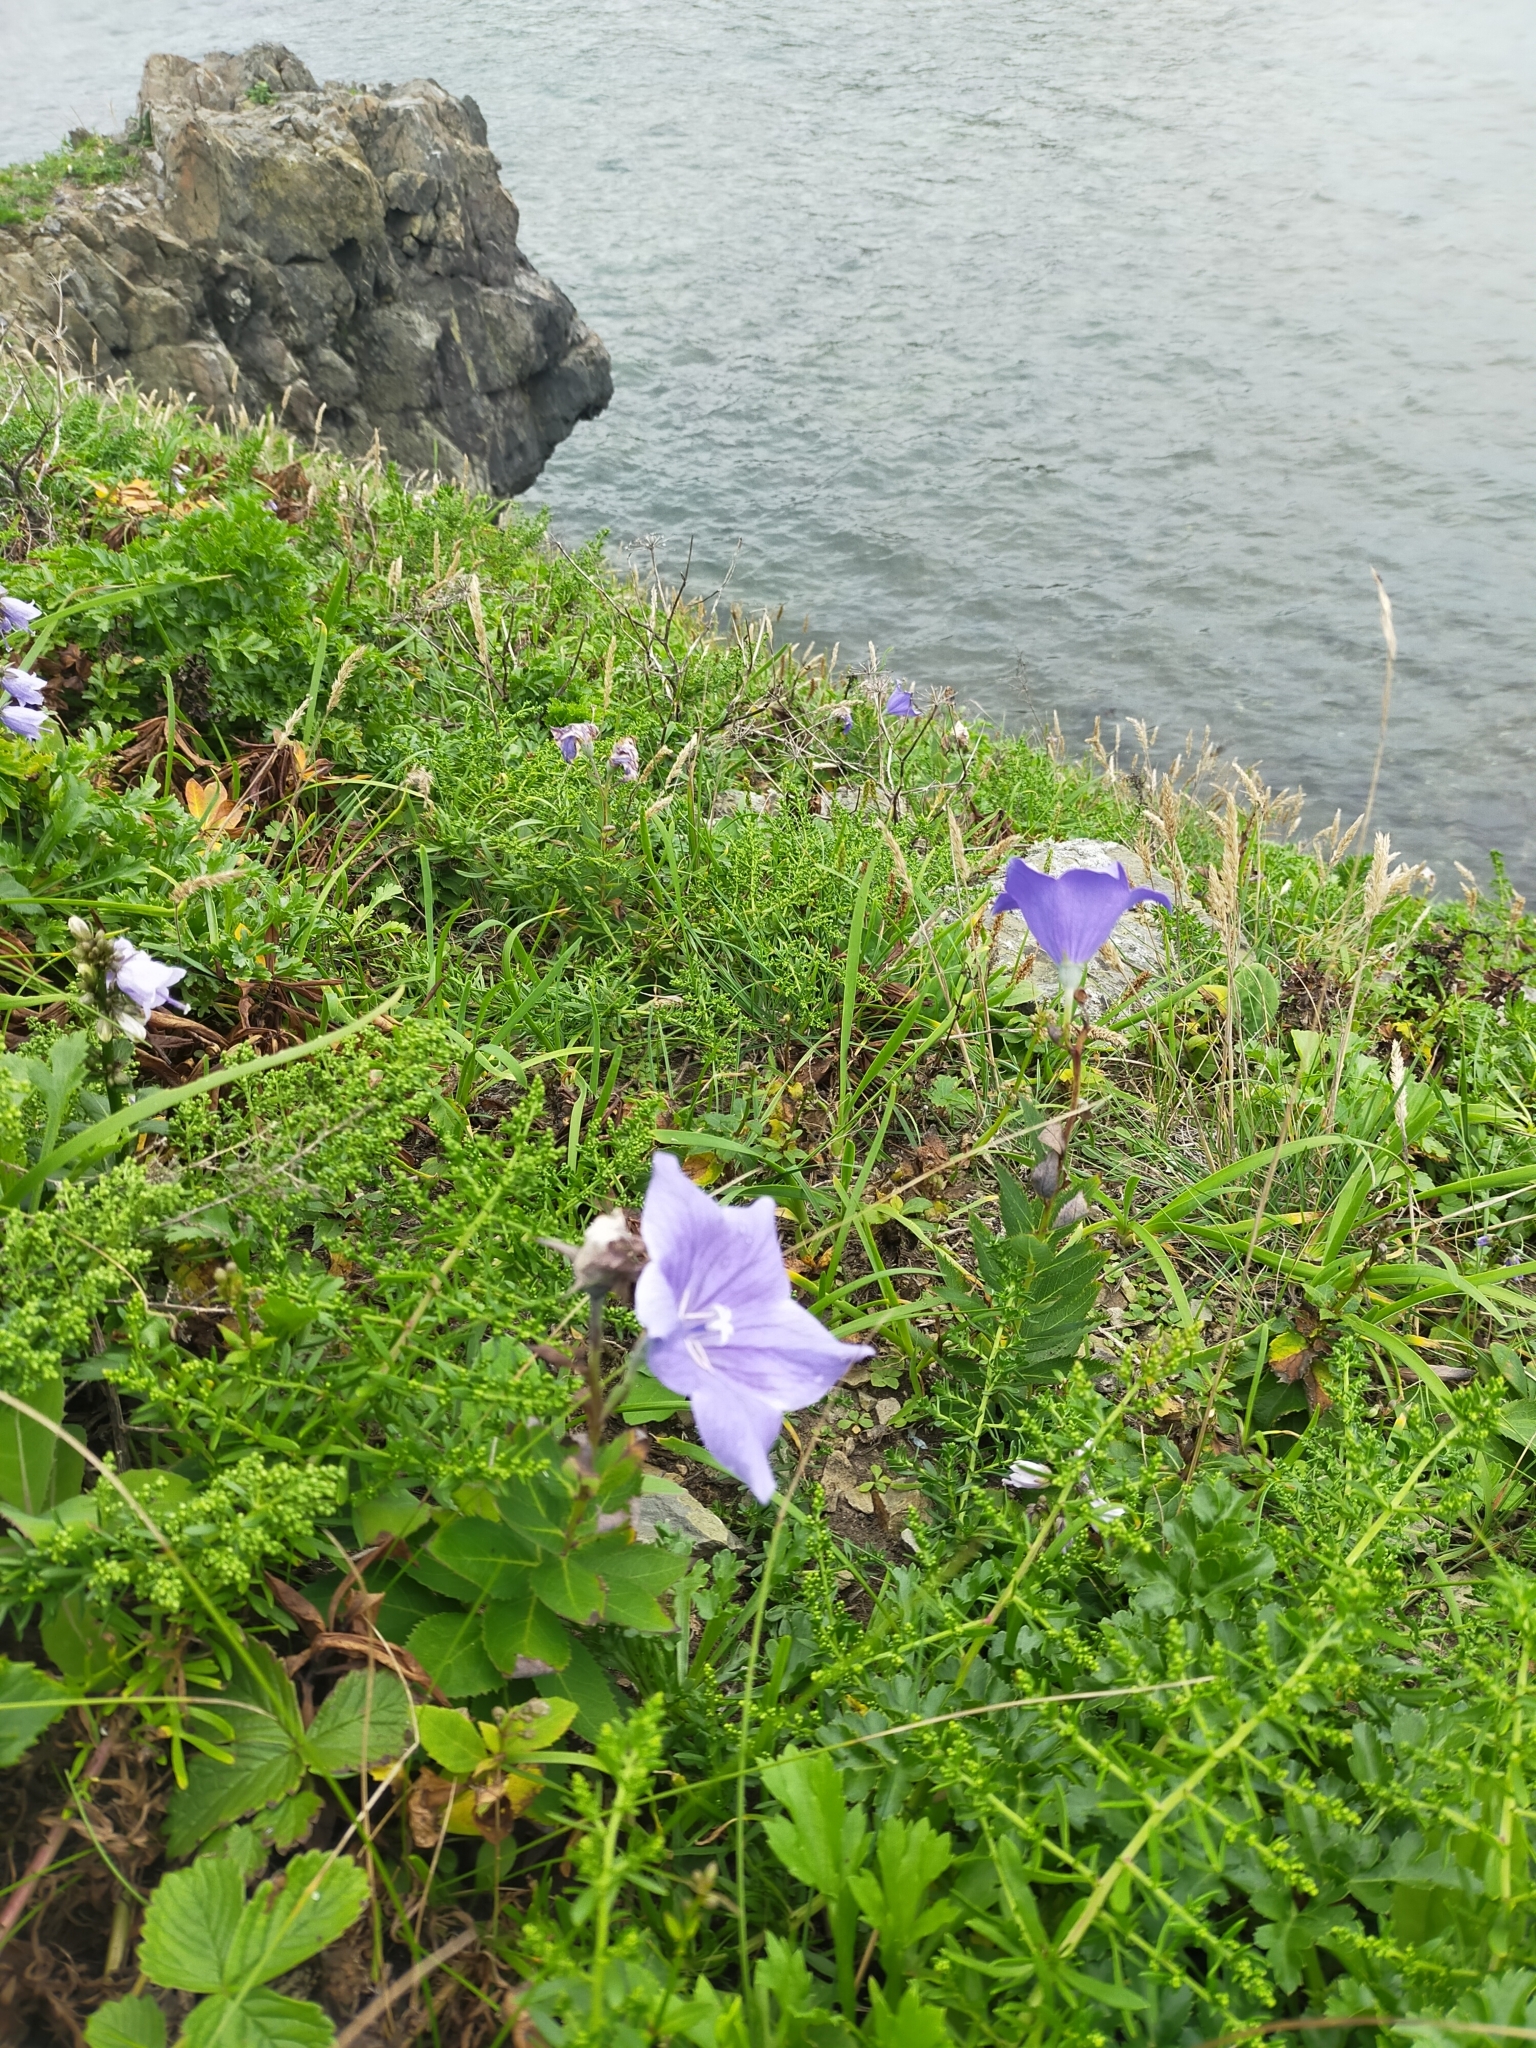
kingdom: Plantae
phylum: Tracheophyta
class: Magnoliopsida
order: Asterales
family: Campanulaceae
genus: Platycodon
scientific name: Platycodon grandiflorus
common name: Balloon-flower
